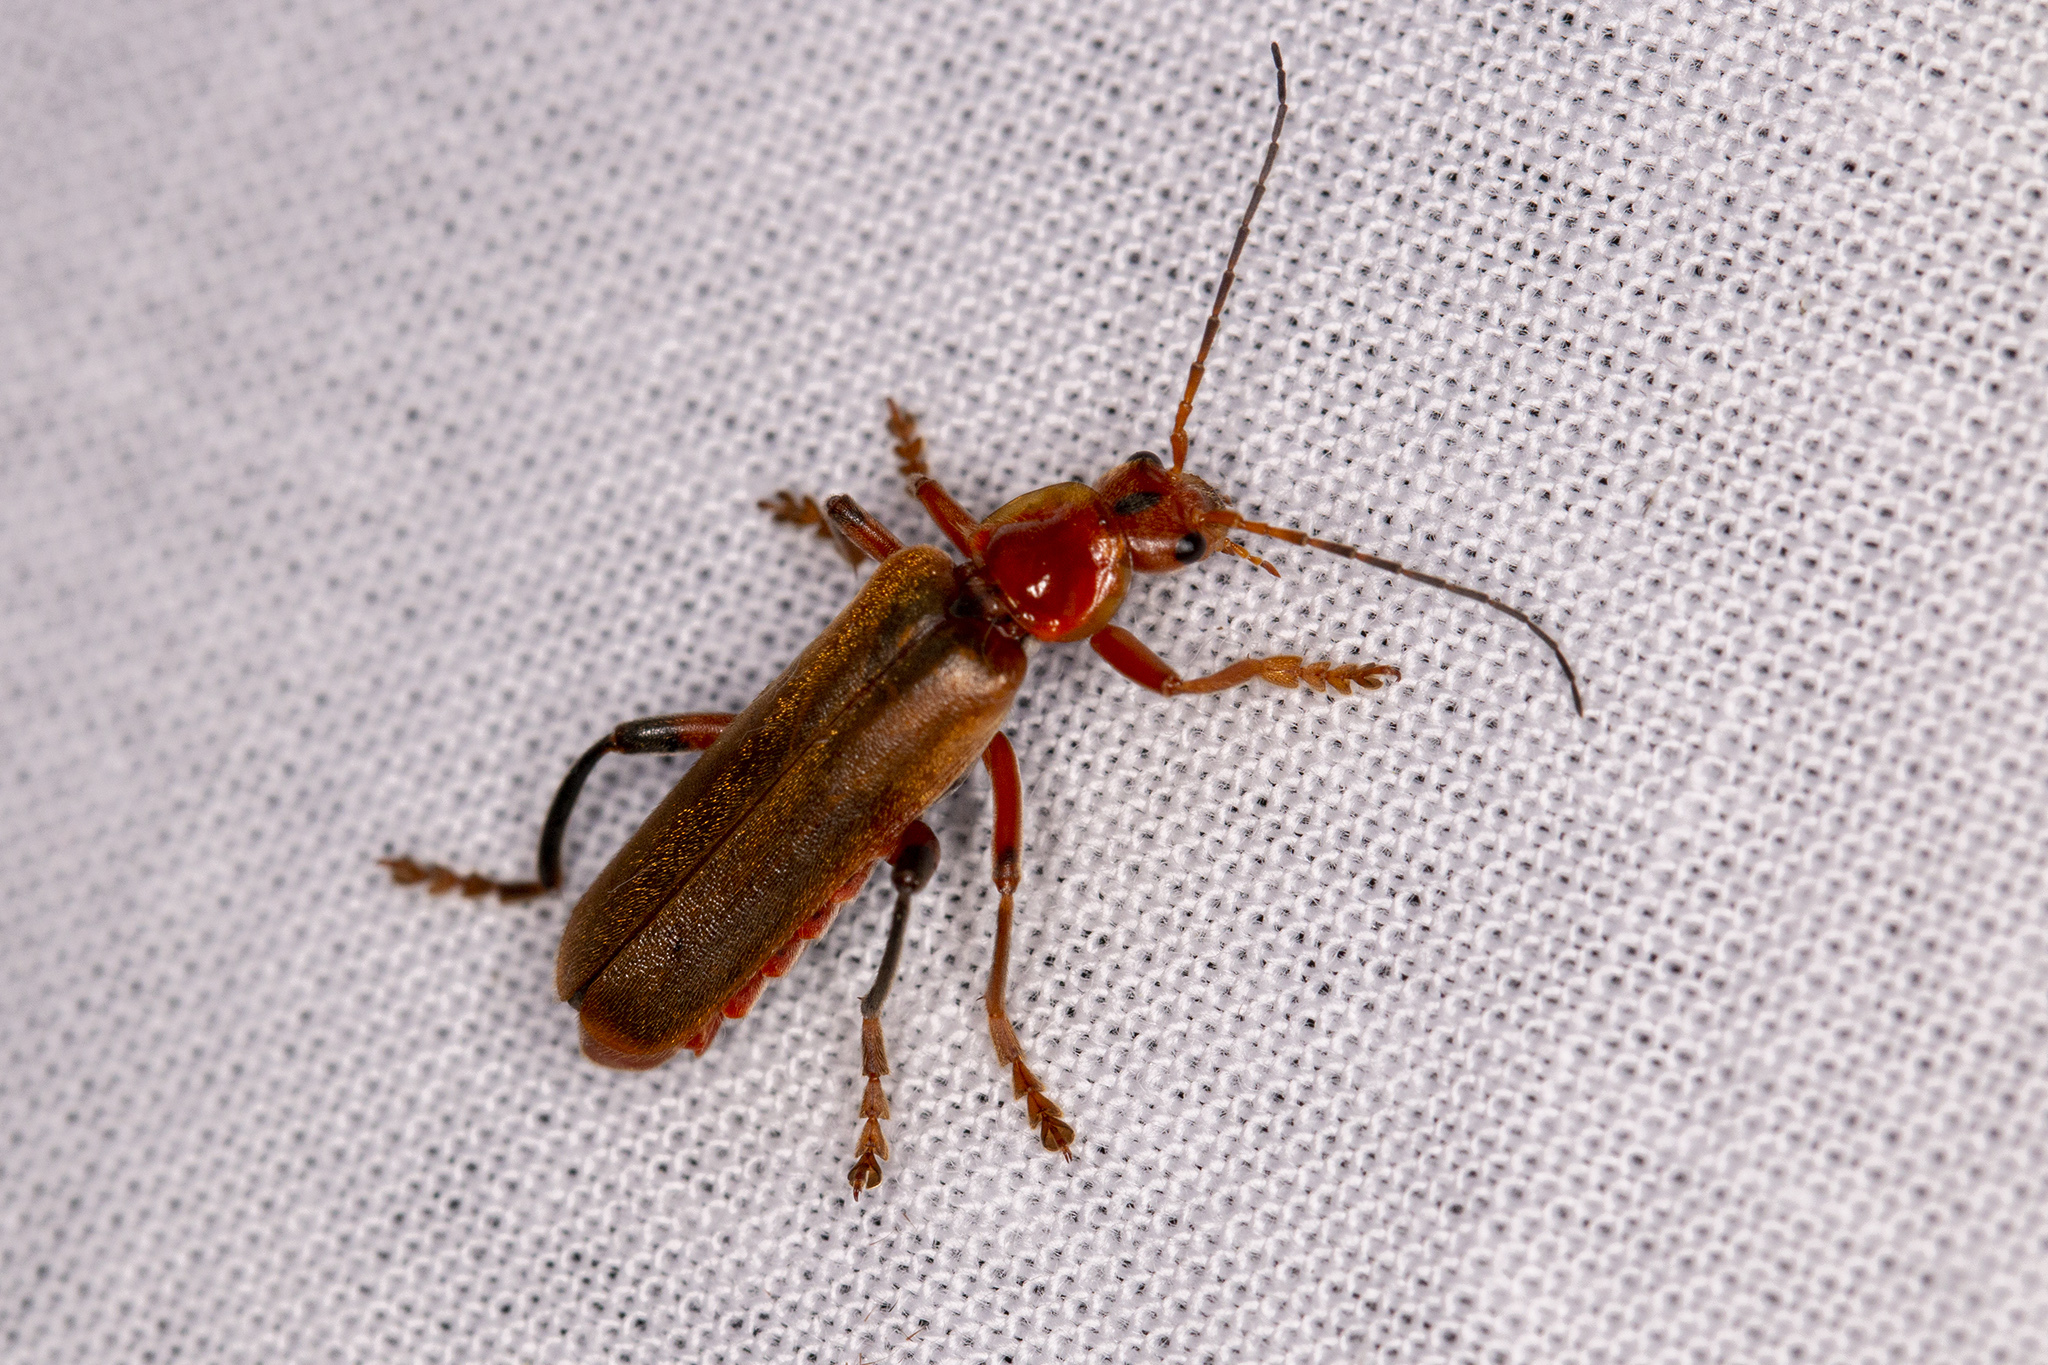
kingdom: Animalia
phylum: Arthropoda
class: Insecta
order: Coleoptera
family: Cantharidae
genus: Cantharis
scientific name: Cantharis livida
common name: Livid soldier beetle
